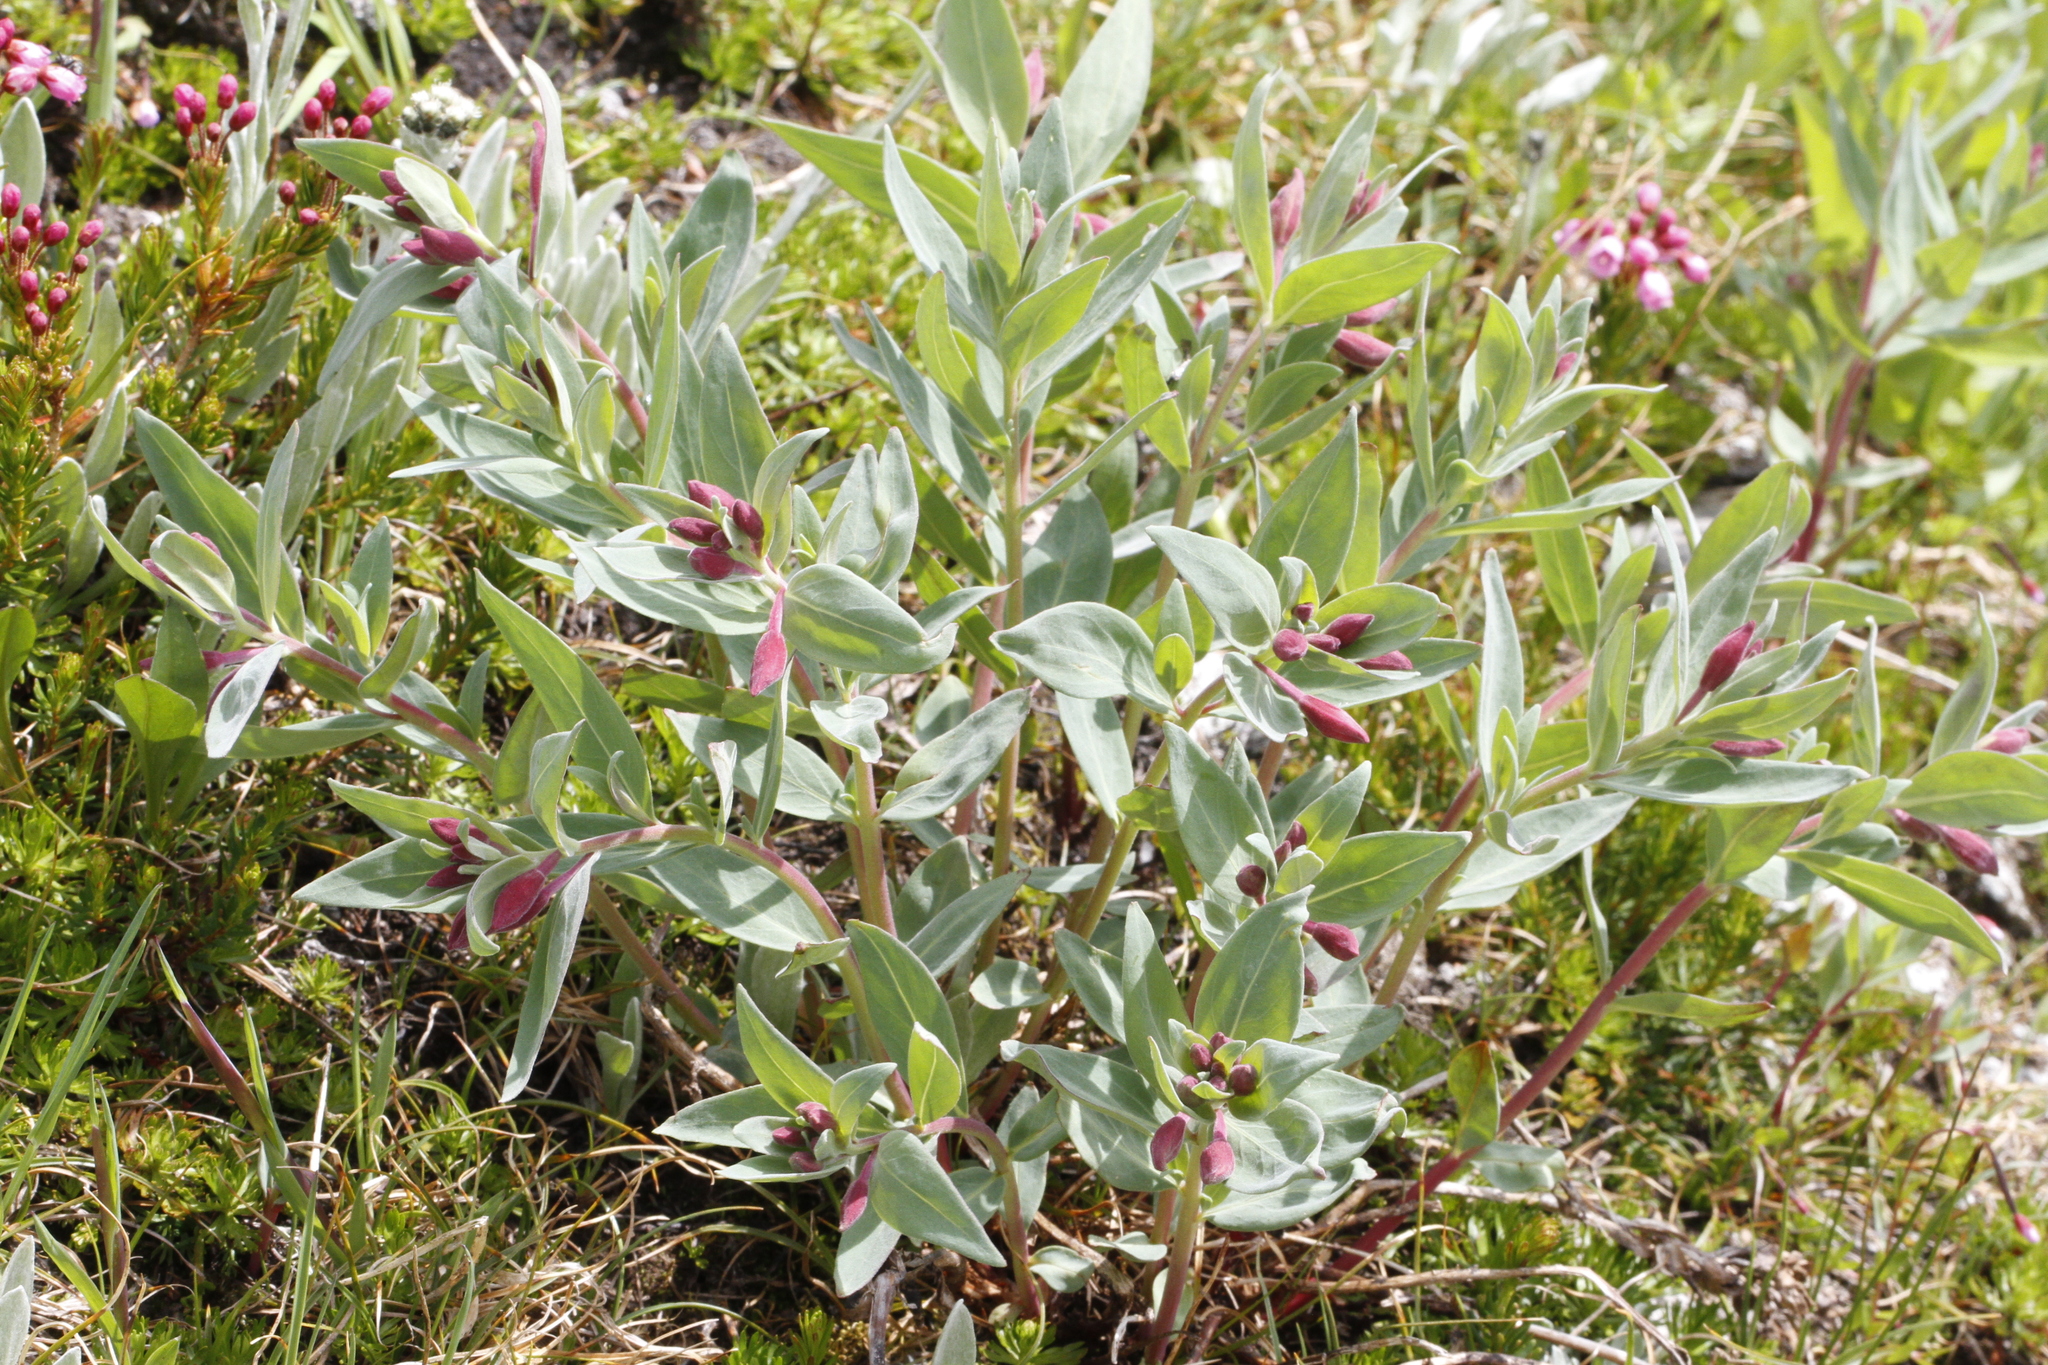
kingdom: Plantae
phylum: Tracheophyta
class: Magnoliopsida
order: Myrtales
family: Onagraceae
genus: Chamaenerion
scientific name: Chamaenerion latifolium
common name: Dwarf fireweed
